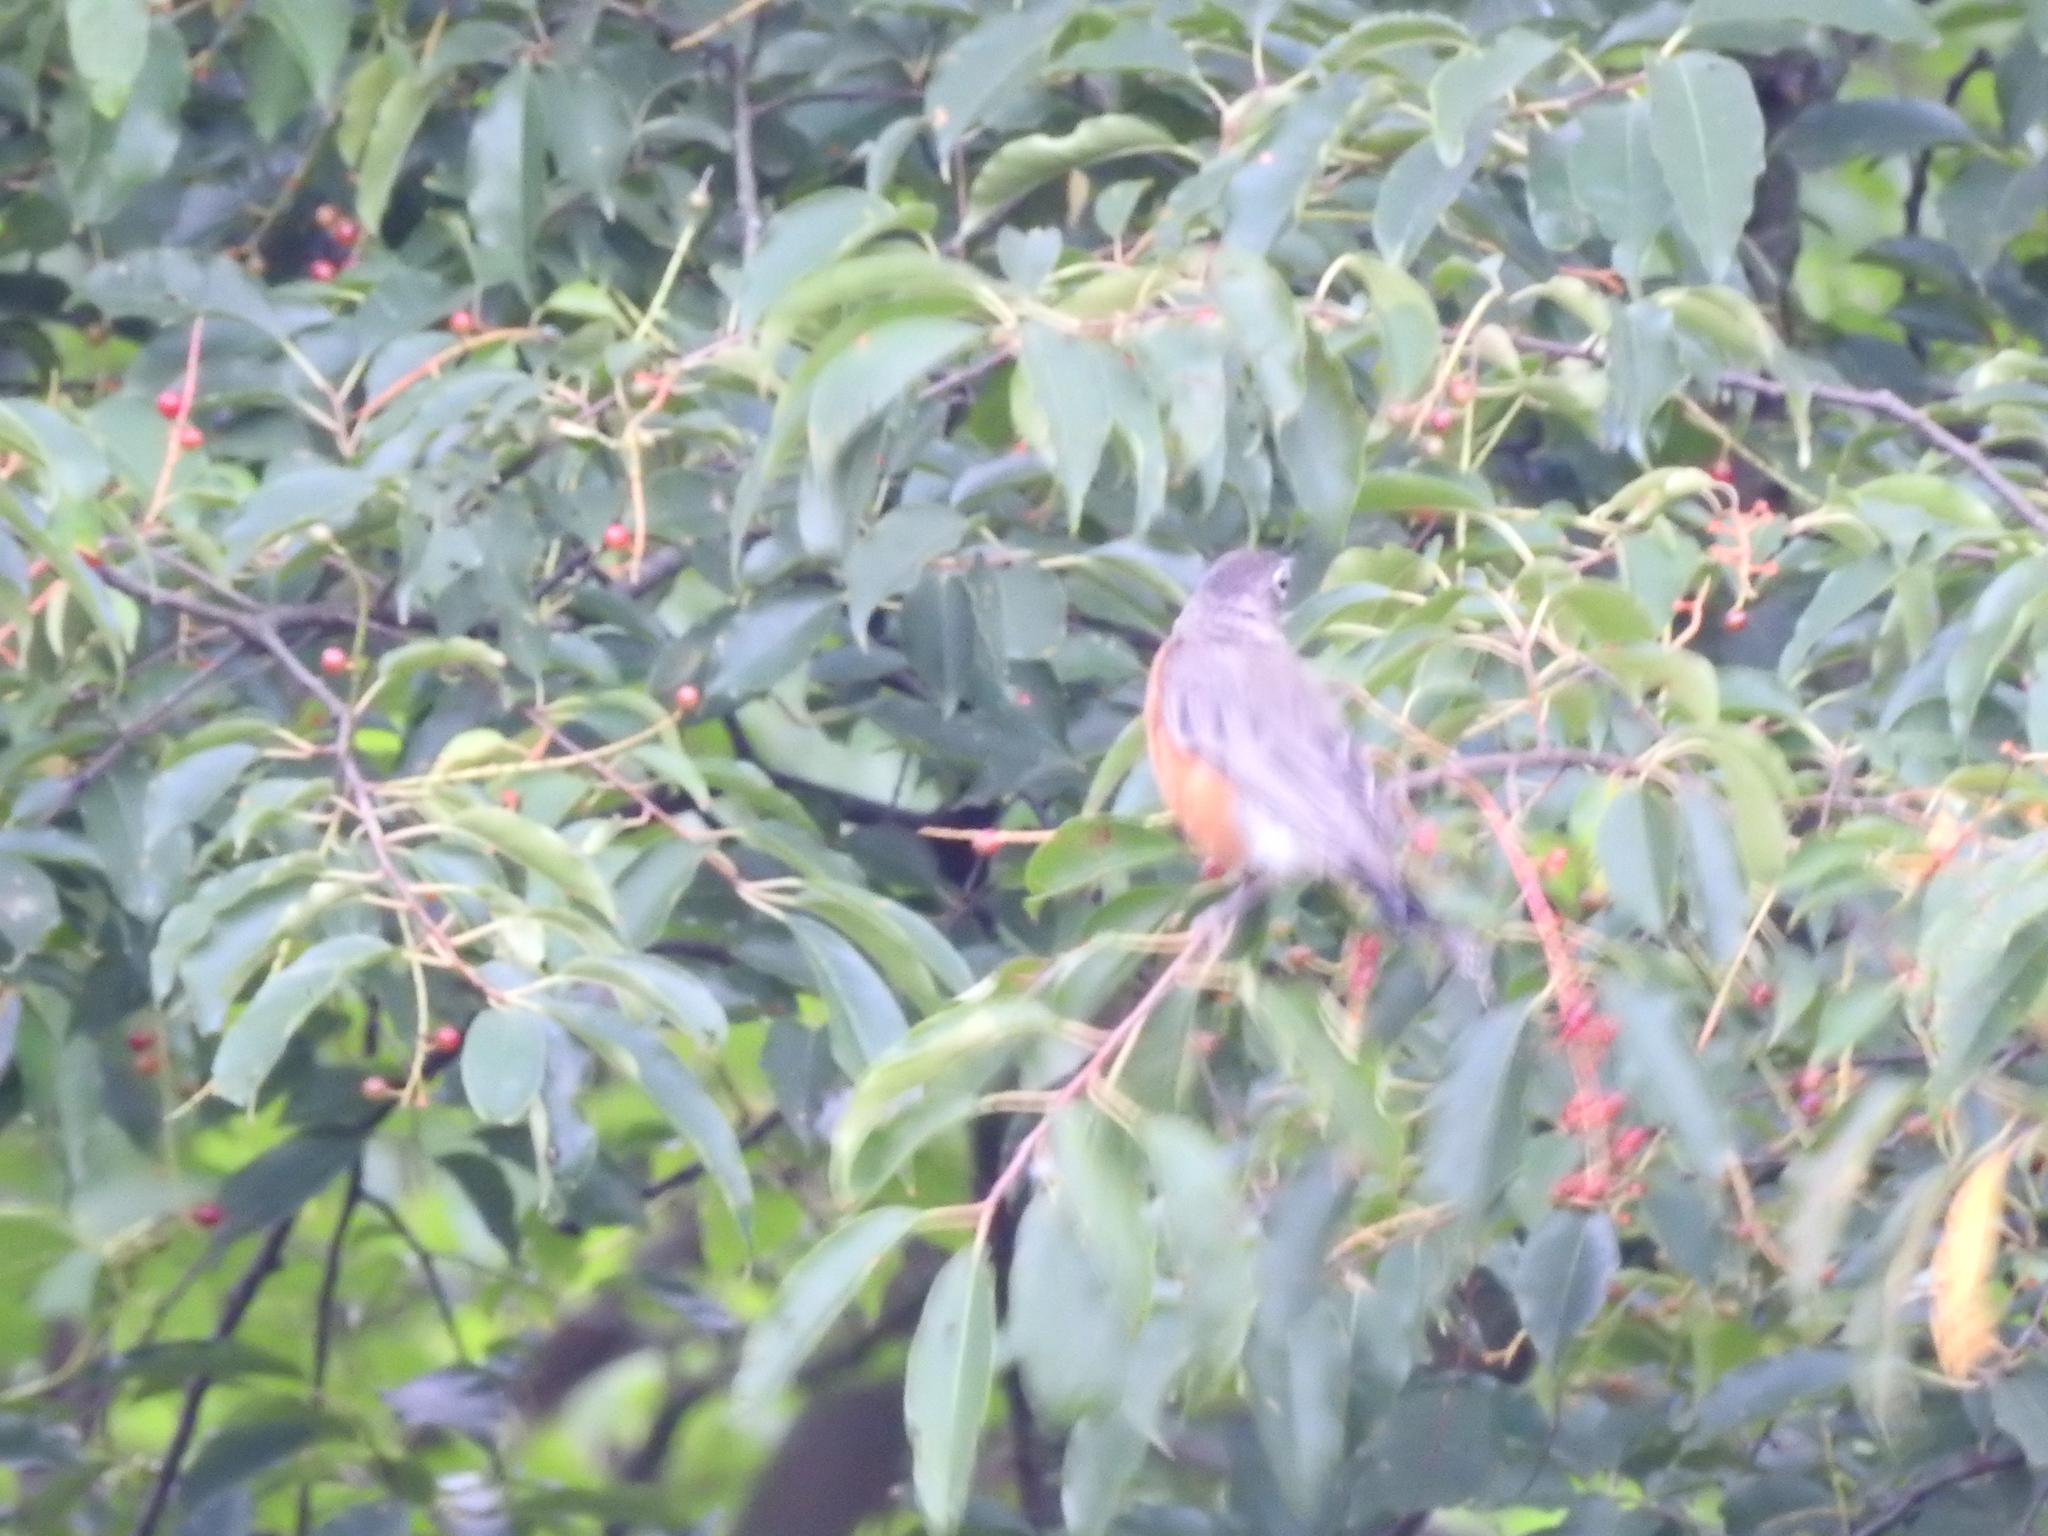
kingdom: Animalia
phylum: Chordata
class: Aves
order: Passeriformes
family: Turdidae
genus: Turdus
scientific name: Turdus migratorius
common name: American robin
